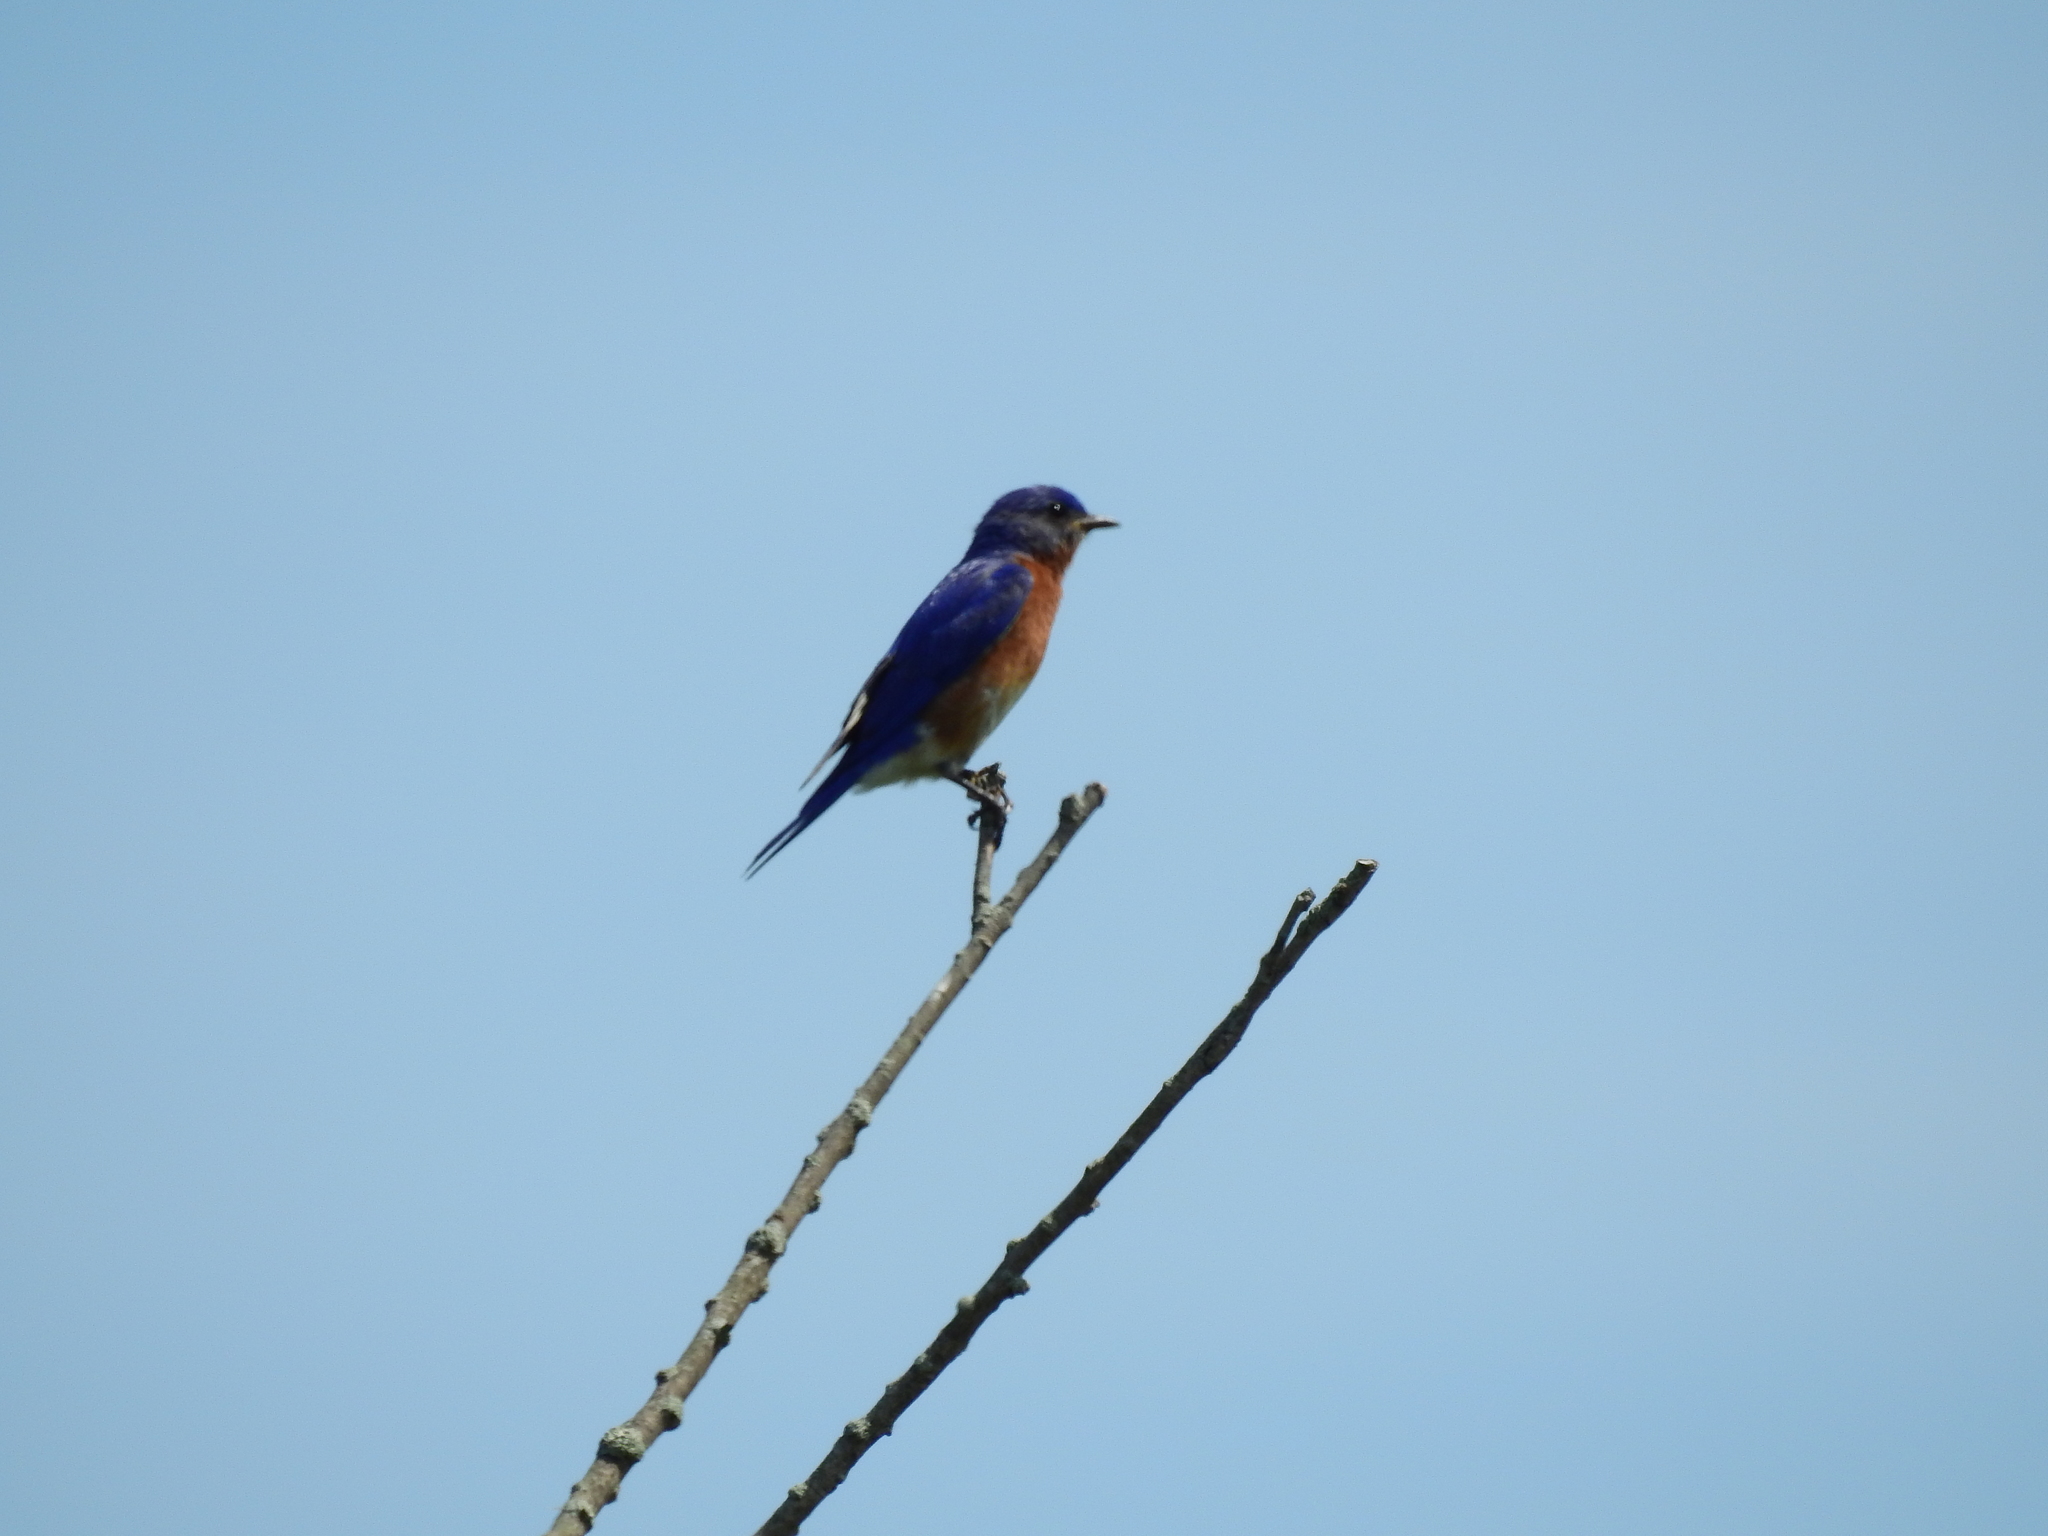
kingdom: Animalia
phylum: Chordata
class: Aves
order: Passeriformes
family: Turdidae
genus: Sialia
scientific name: Sialia sialis
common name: Eastern bluebird
